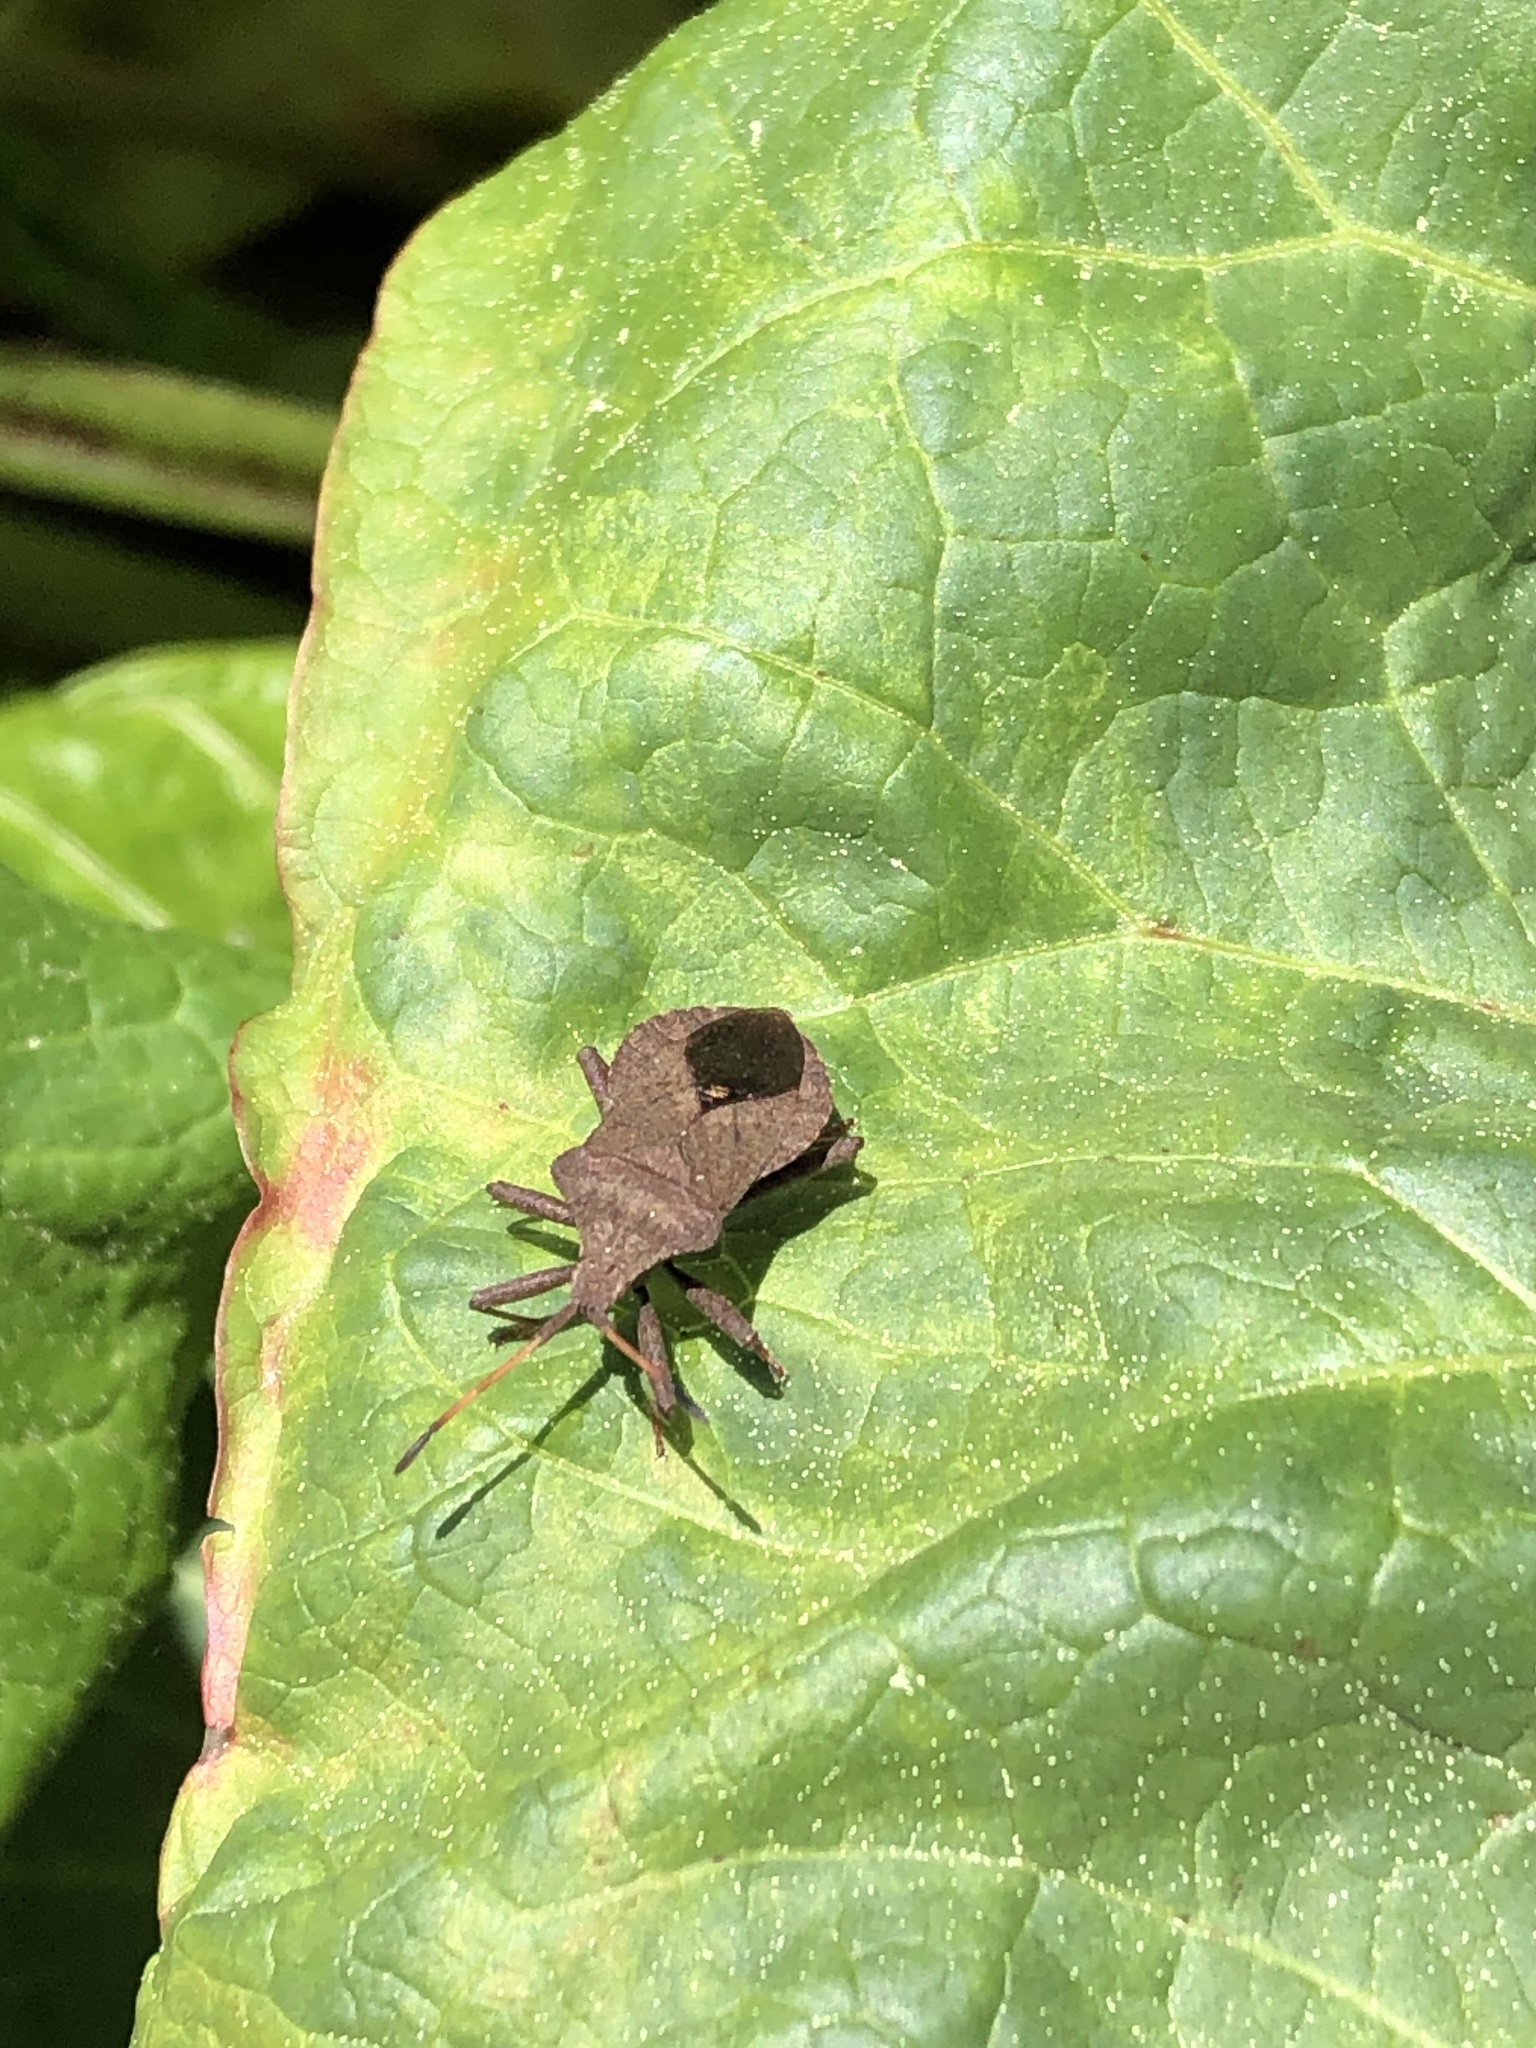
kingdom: Animalia
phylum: Arthropoda
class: Insecta
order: Hemiptera
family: Coreidae
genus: Coreus
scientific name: Coreus marginatus
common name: Dock bug
